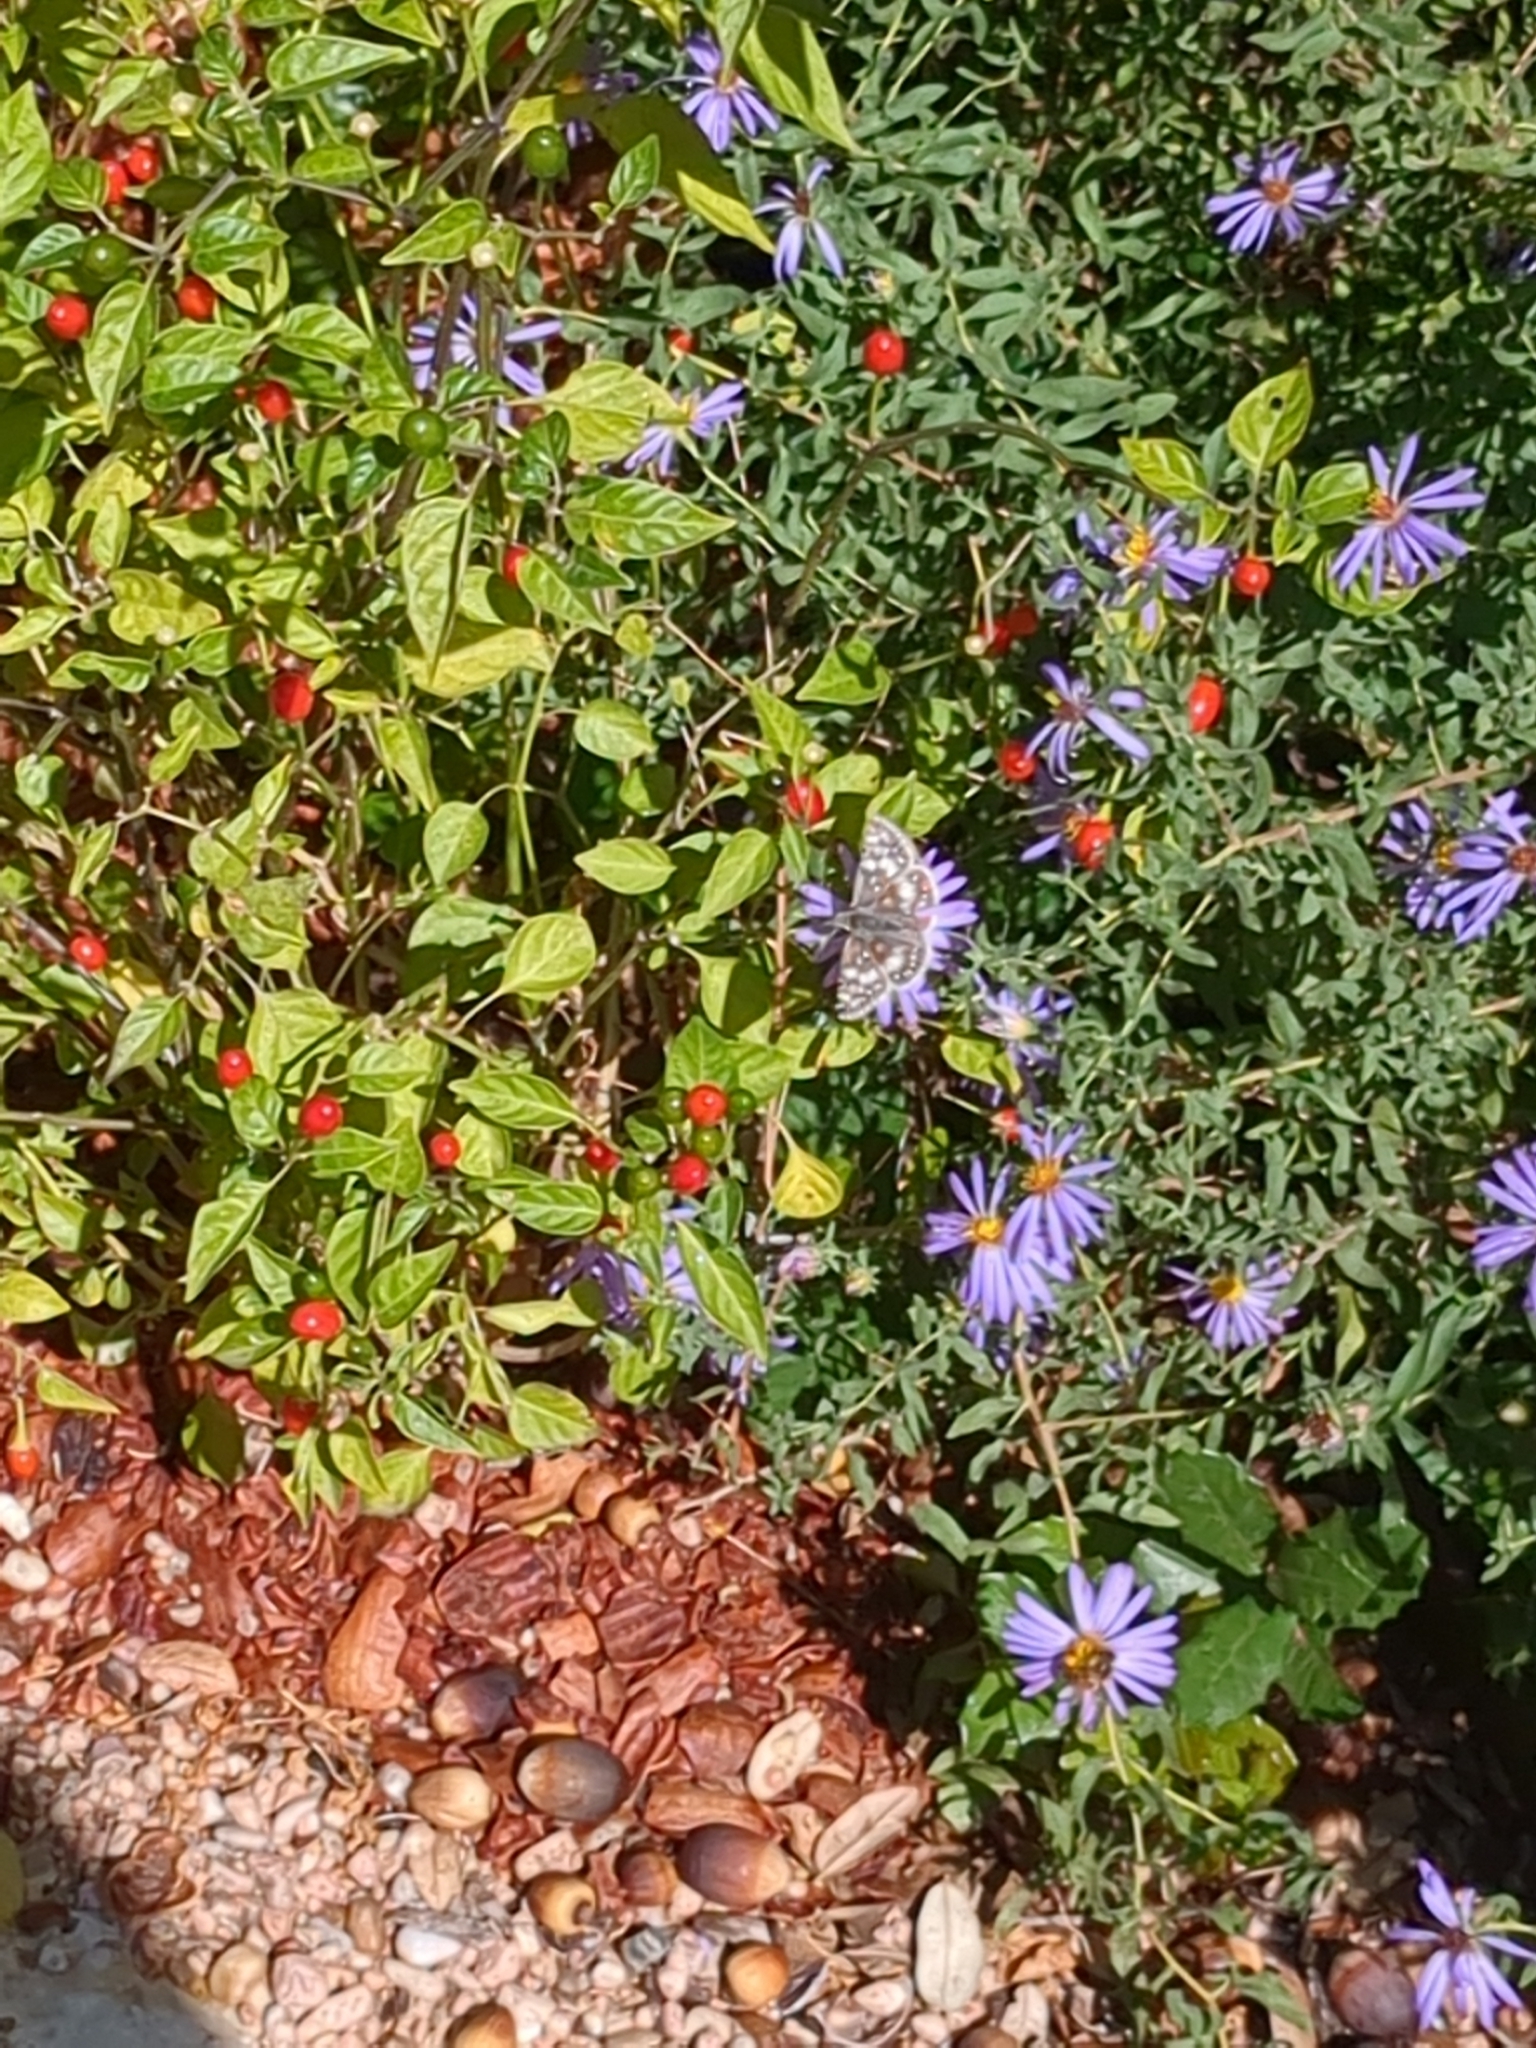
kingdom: Animalia
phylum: Arthropoda
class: Insecta
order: Lepidoptera
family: Hesperiidae
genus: Burnsius
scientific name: Burnsius
